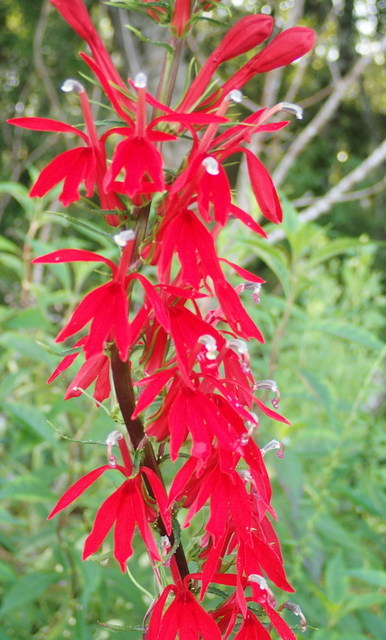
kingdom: Plantae
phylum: Tracheophyta
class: Magnoliopsida
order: Asterales
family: Campanulaceae
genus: Lobelia
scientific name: Lobelia cardinalis
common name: Cardinal flower
